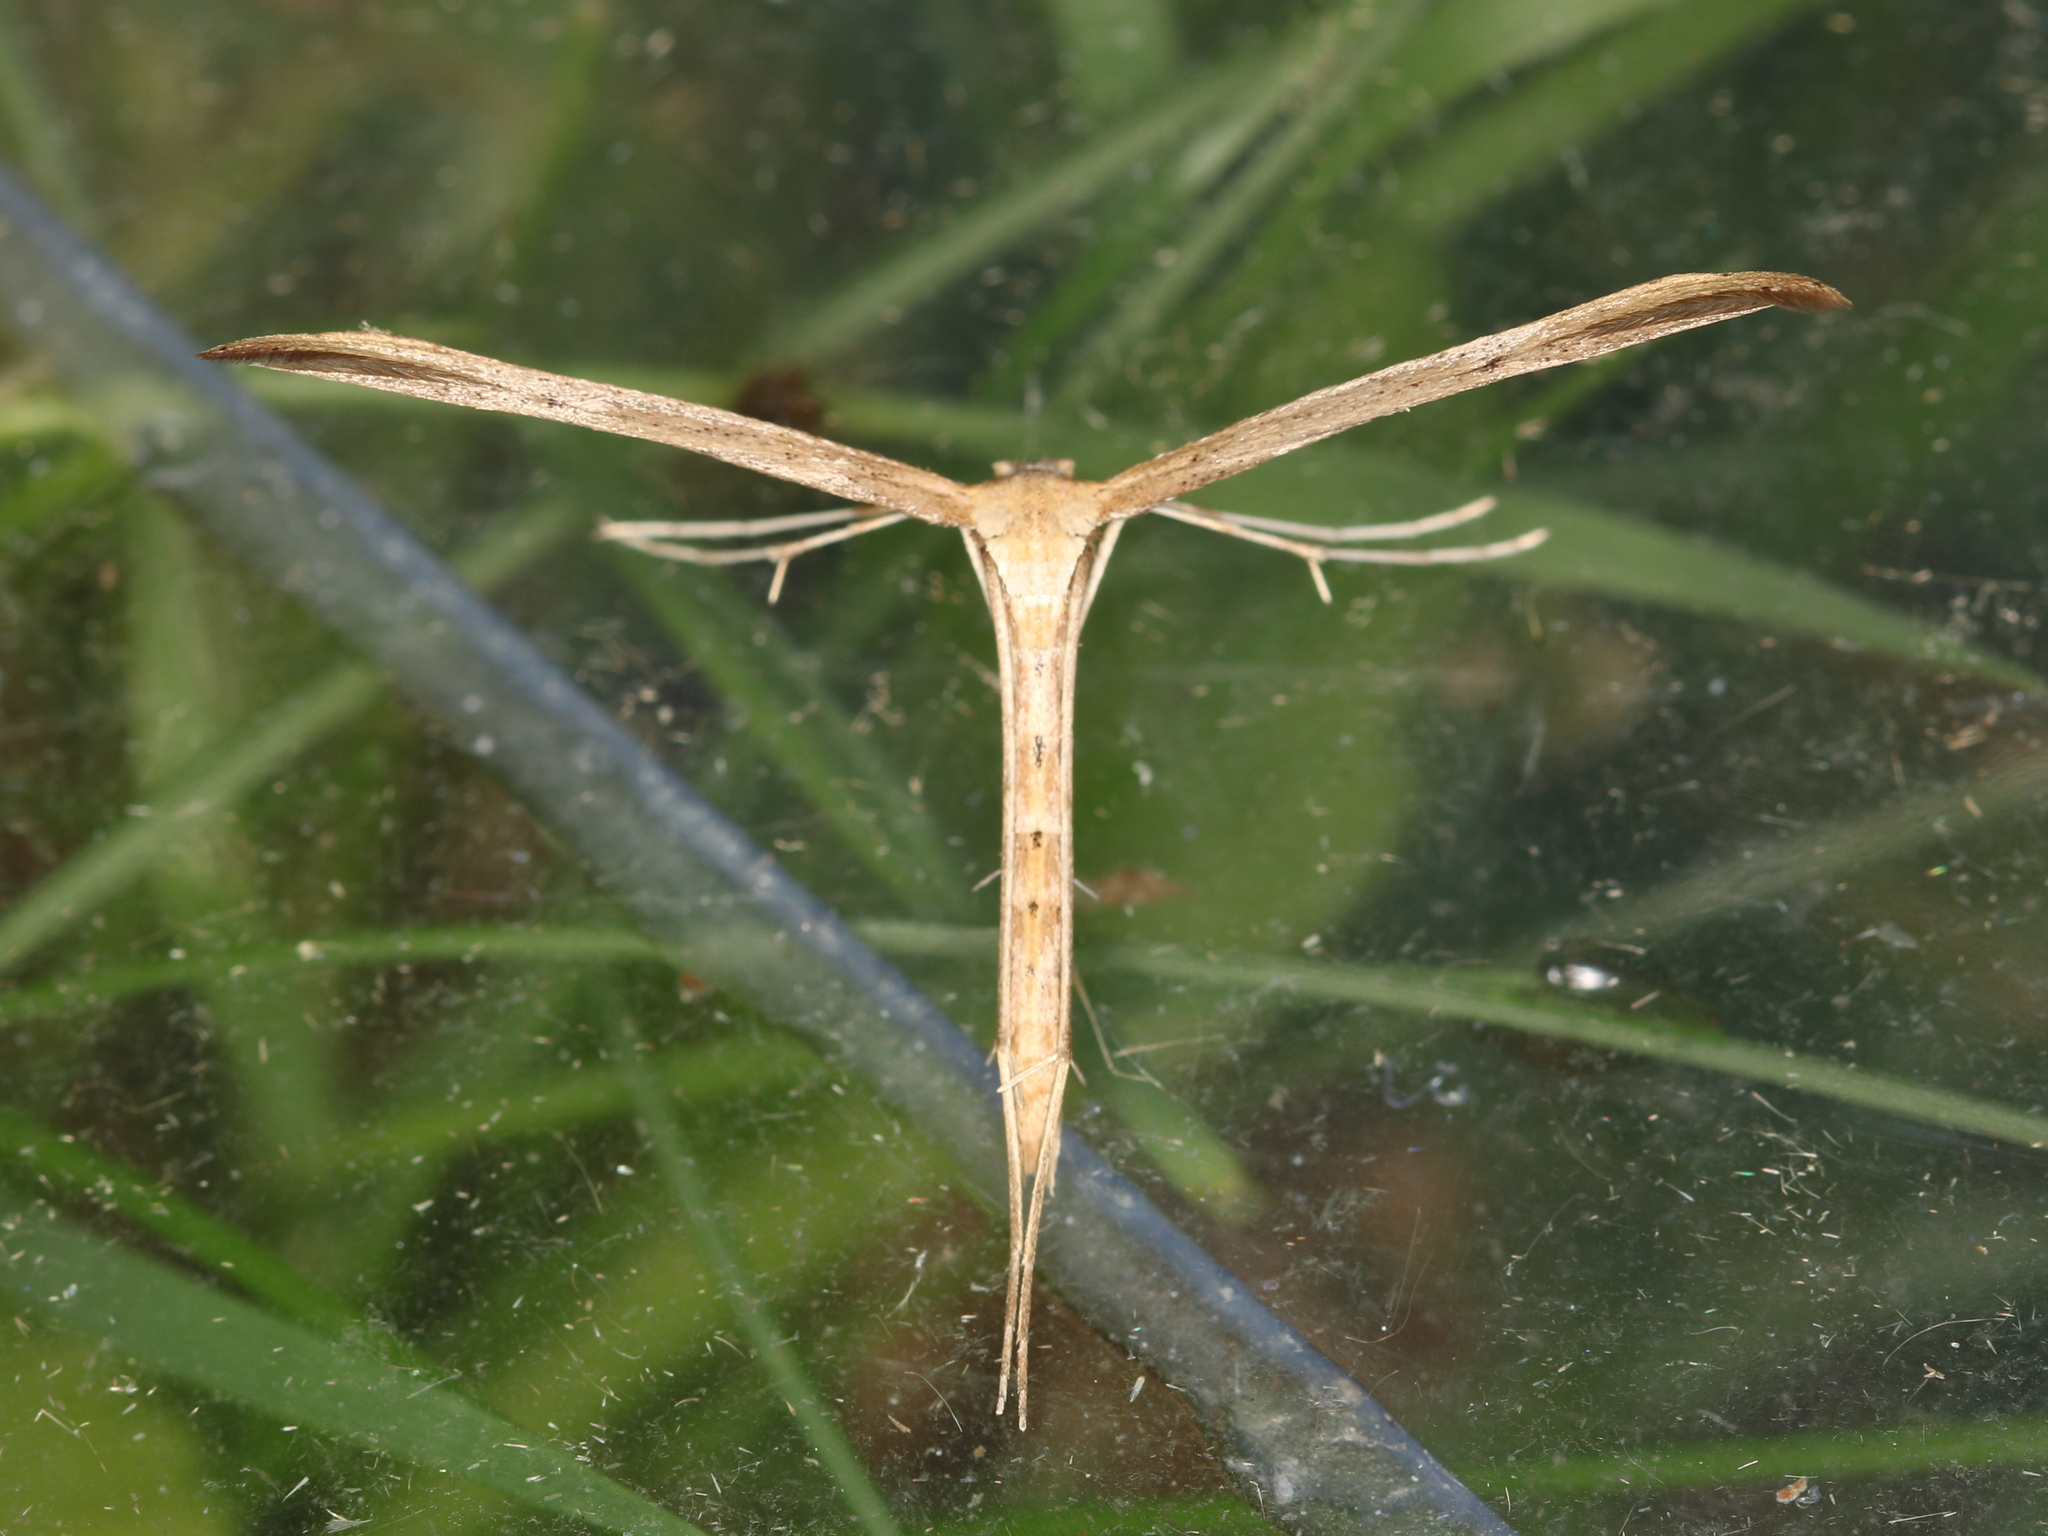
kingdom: Animalia
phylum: Arthropoda
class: Insecta
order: Lepidoptera
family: Pterophoridae
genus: Emmelina
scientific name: Emmelina monodactyla
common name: Common plume
